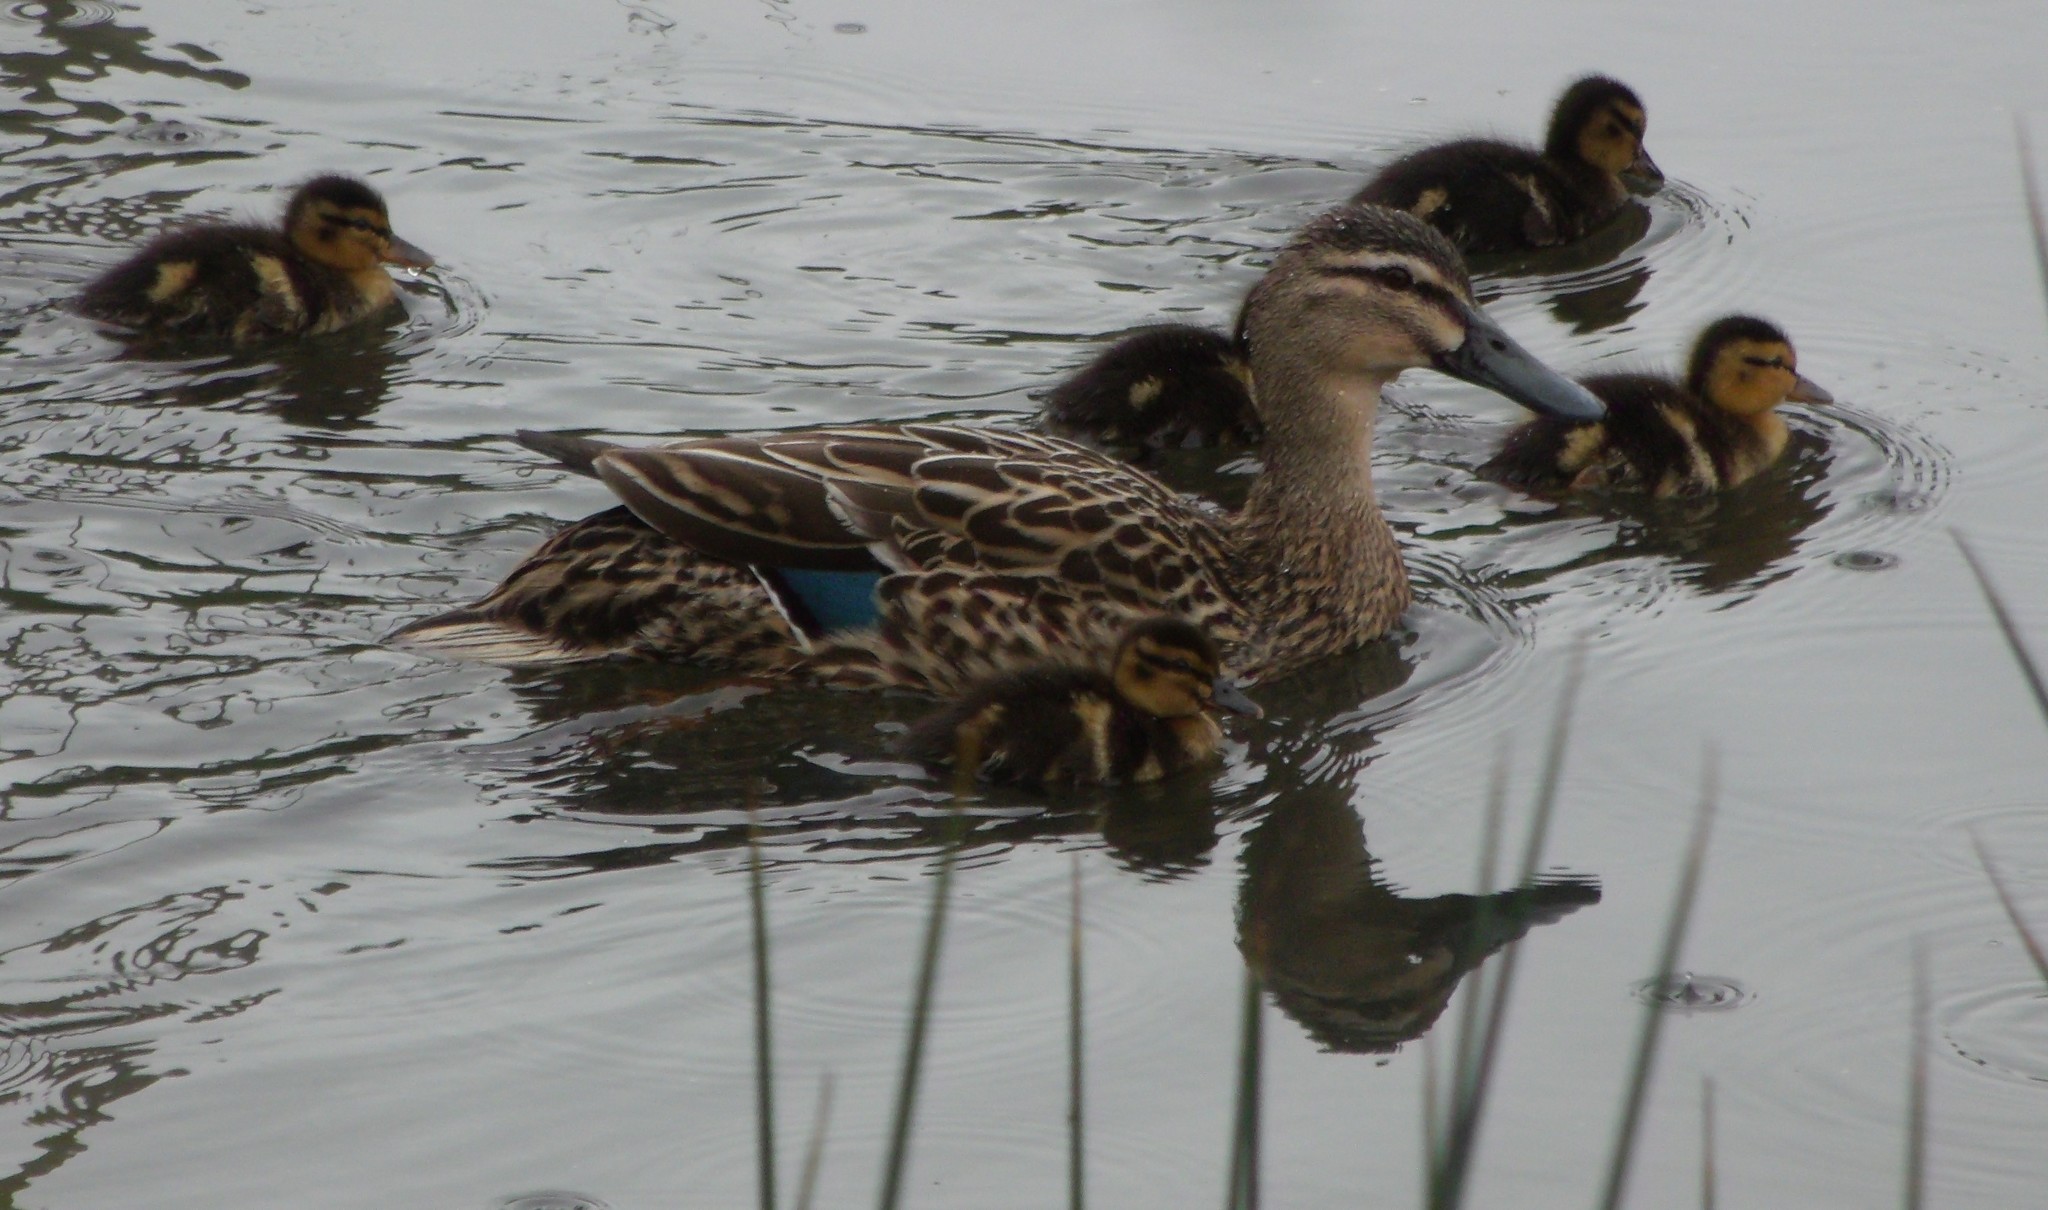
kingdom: Animalia
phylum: Chordata
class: Aves
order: Anseriformes
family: Anatidae
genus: Anas
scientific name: Anas
